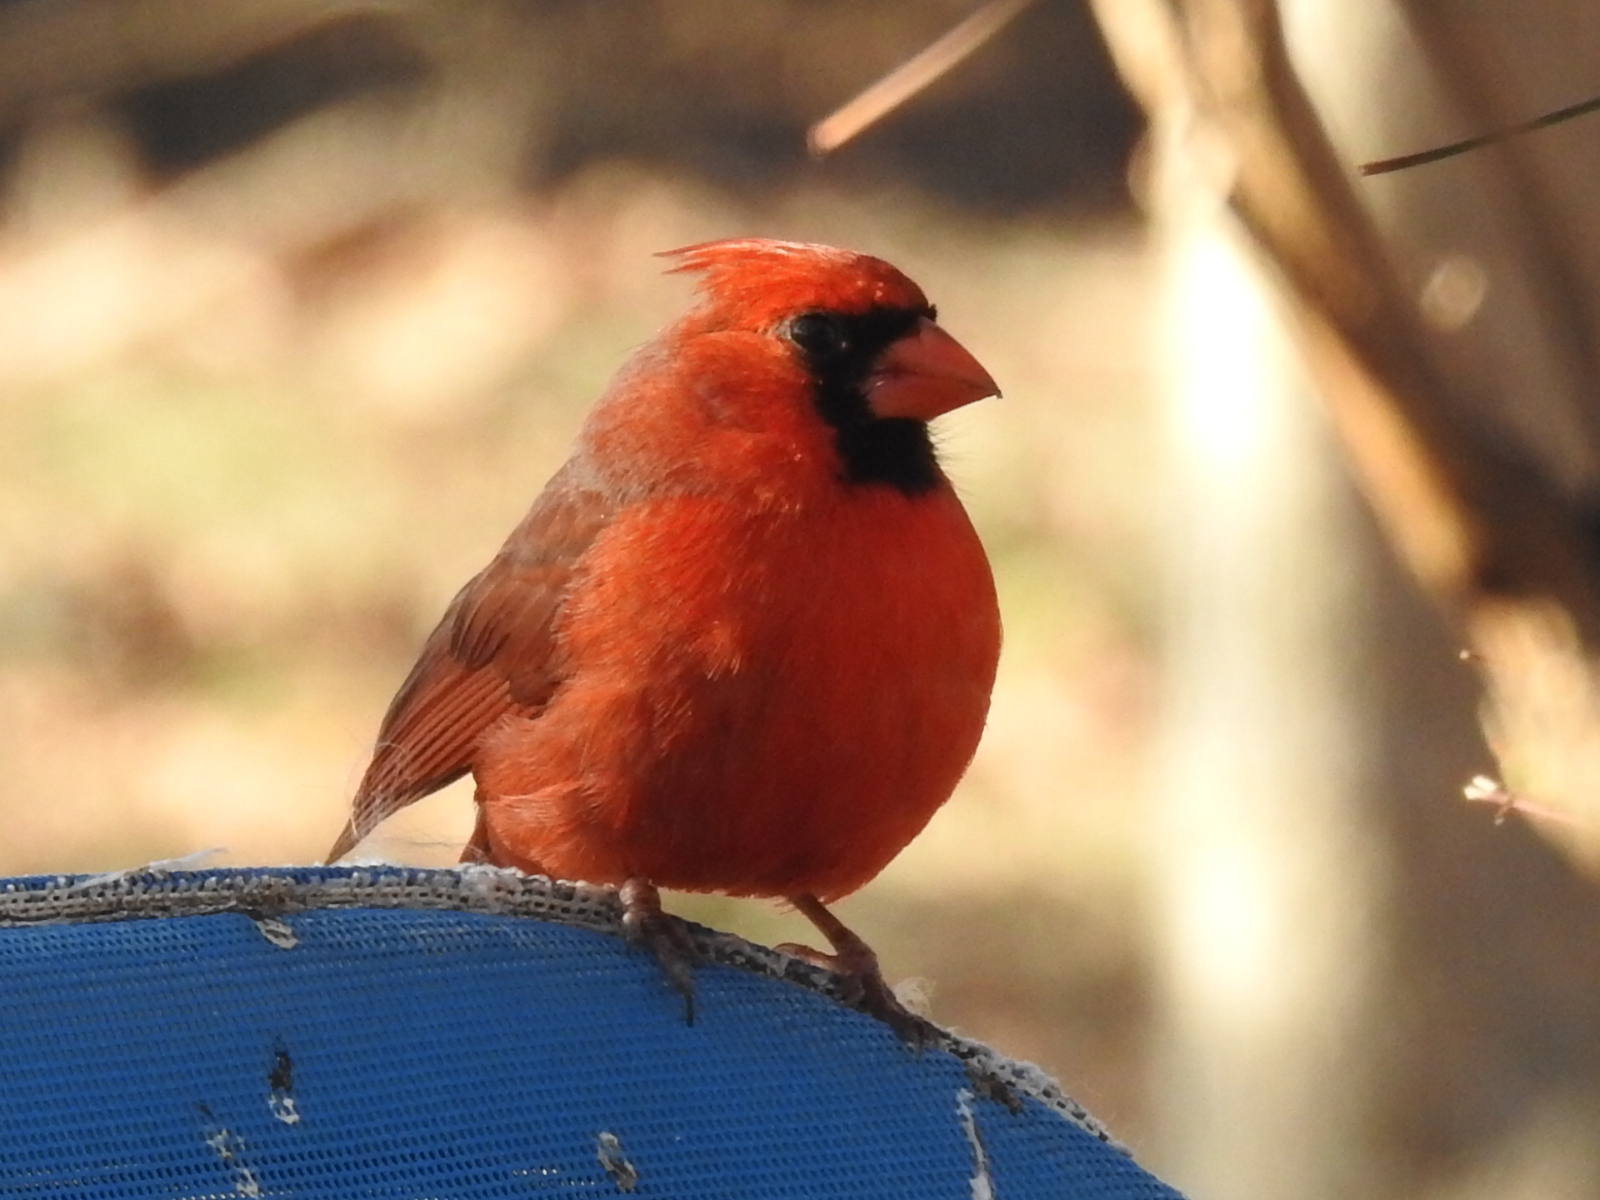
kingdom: Animalia
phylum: Chordata
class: Aves
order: Passeriformes
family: Cardinalidae
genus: Cardinalis
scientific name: Cardinalis cardinalis
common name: Northern cardinal
